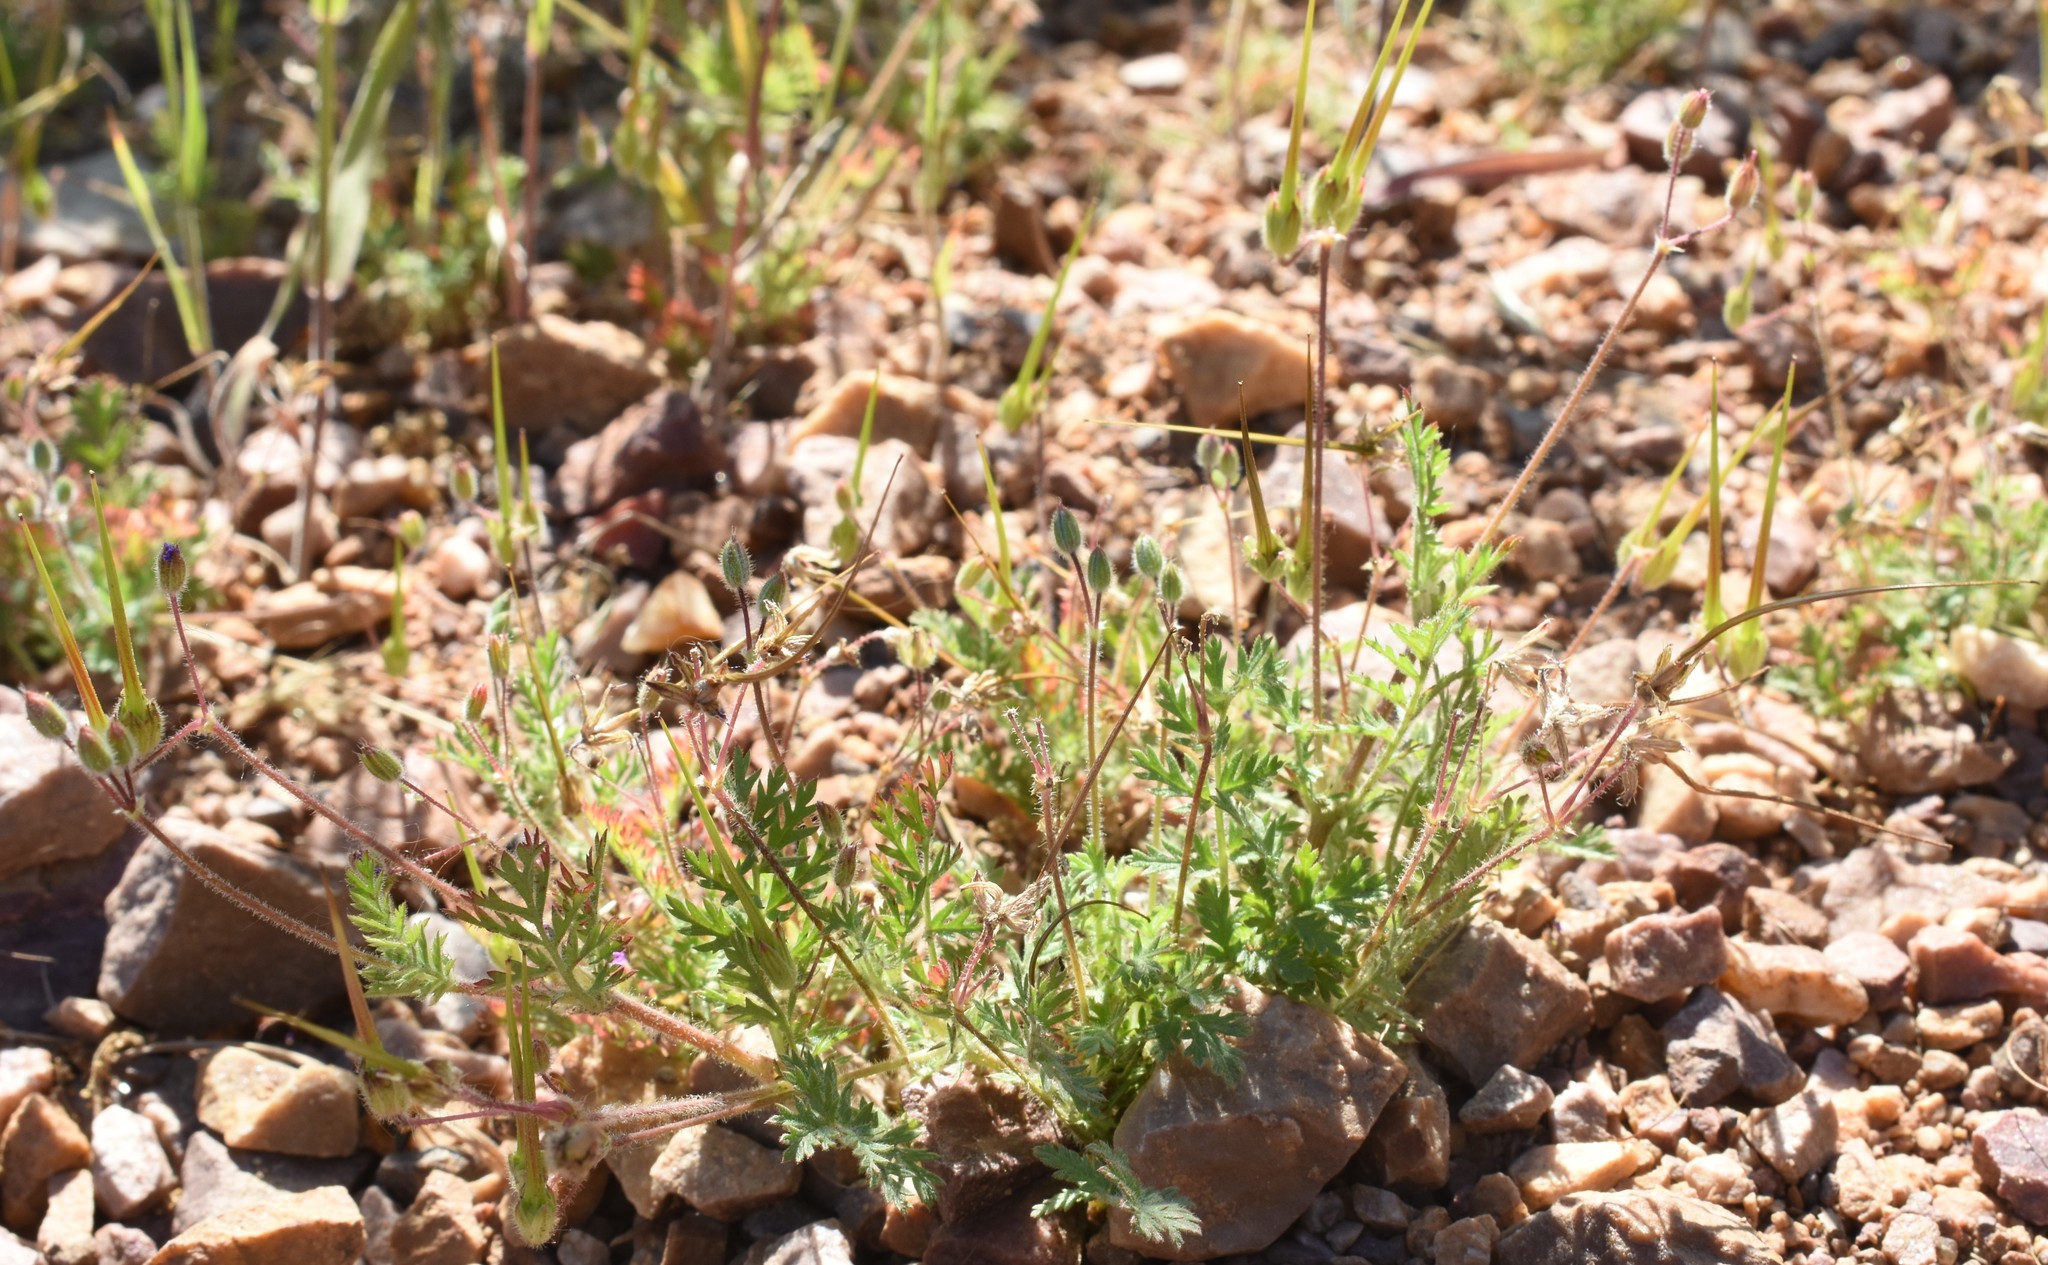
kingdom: Plantae
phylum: Tracheophyta
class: Magnoliopsida
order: Geraniales
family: Geraniaceae
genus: Erodium
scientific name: Erodium cicutarium
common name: Common stork's-bill
